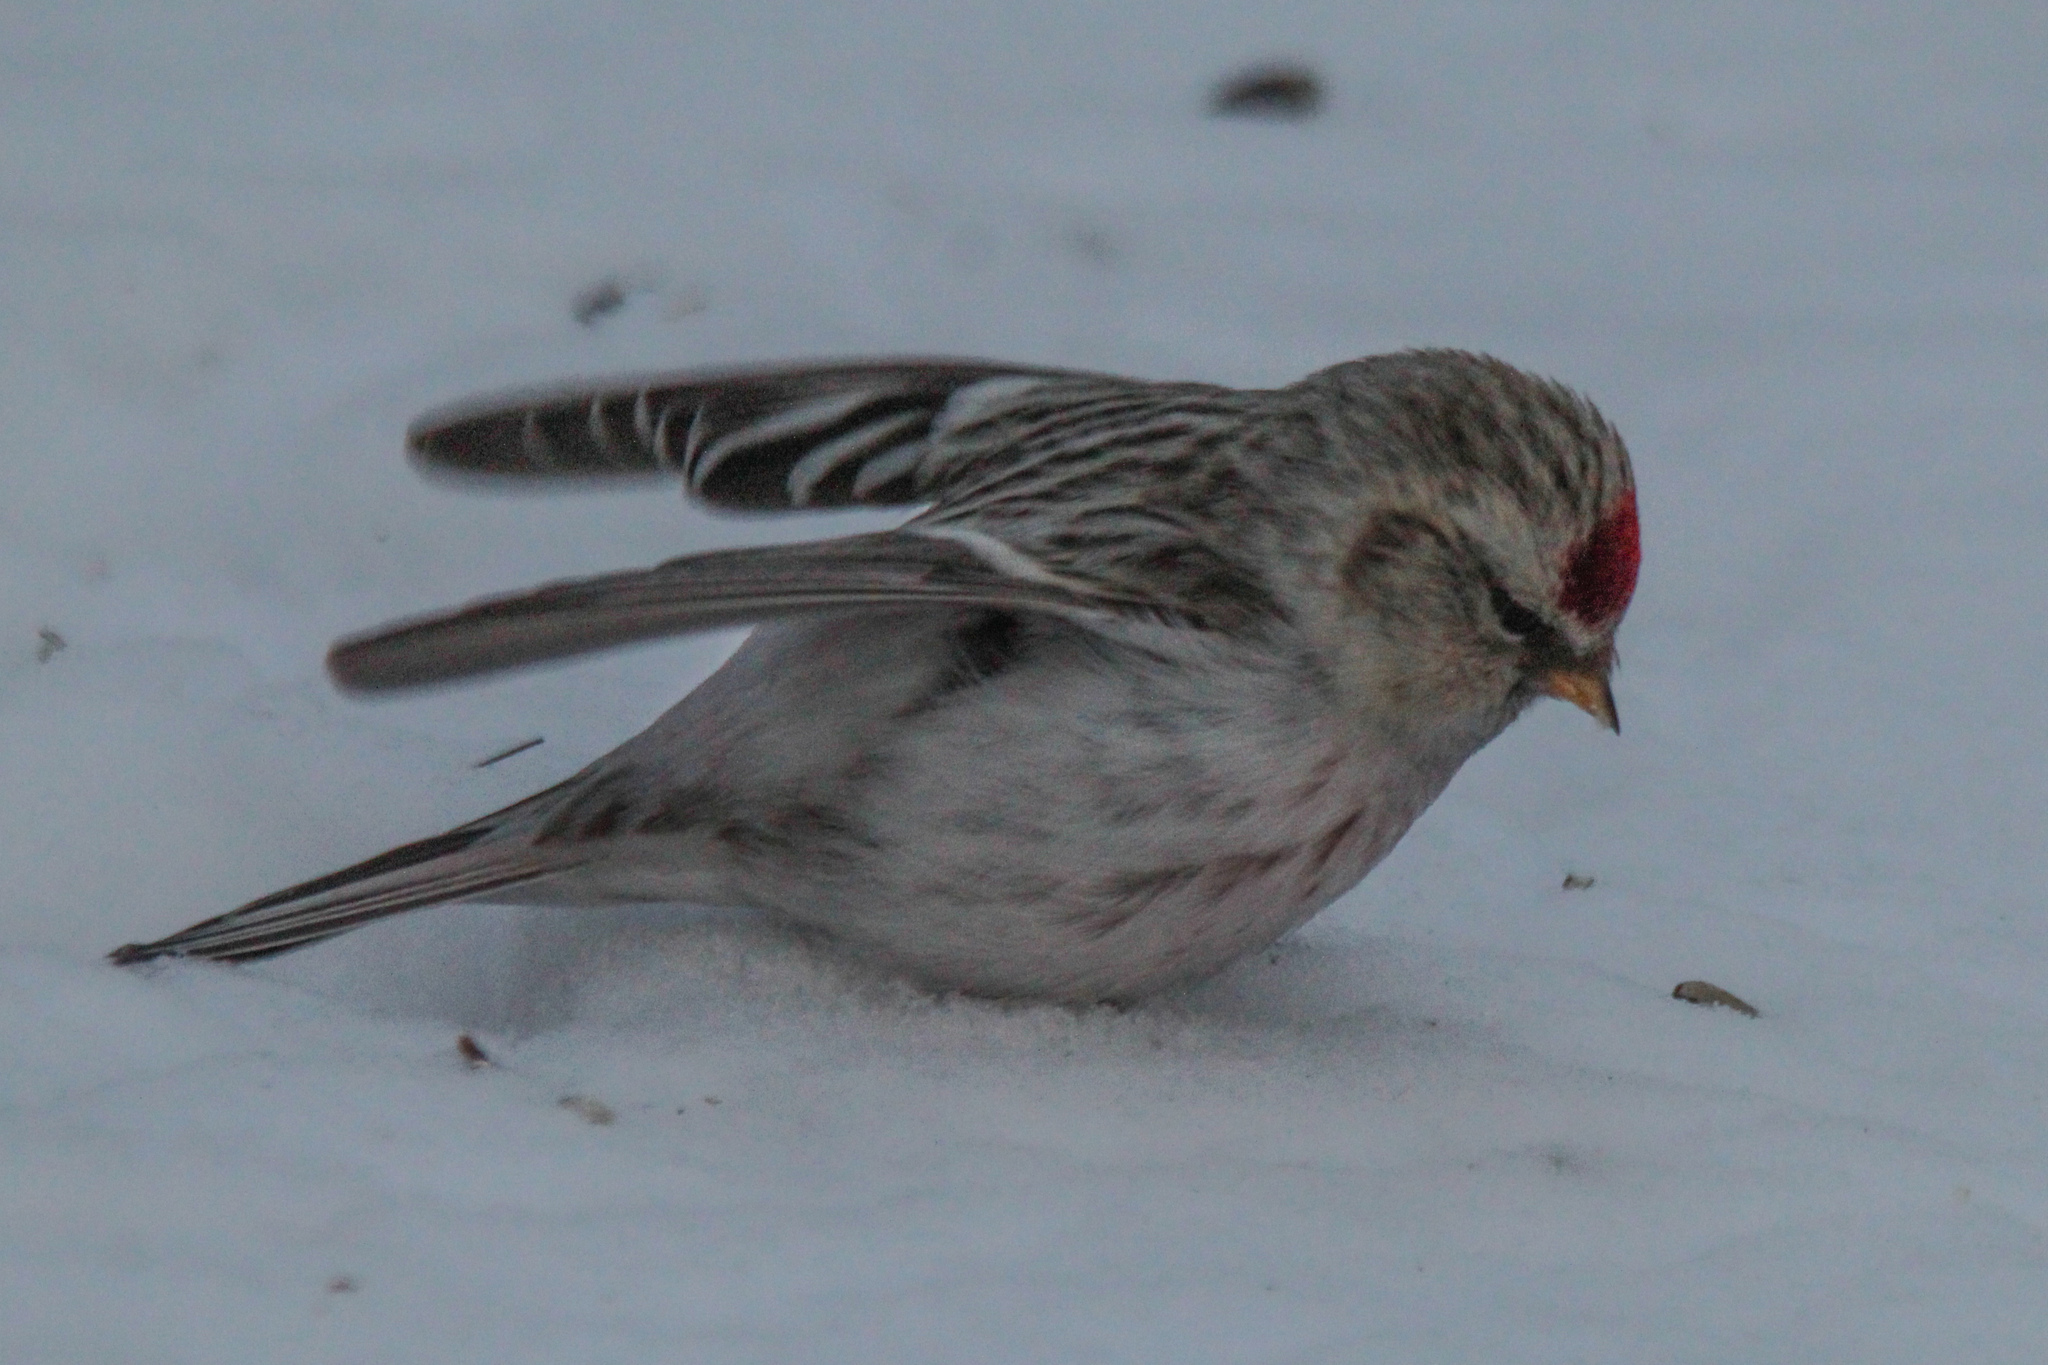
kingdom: Animalia
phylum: Chordata
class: Aves
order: Passeriformes
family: Fringillidae
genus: Acanthis
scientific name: Acanthis hornemanni
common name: Arctic redpoll
